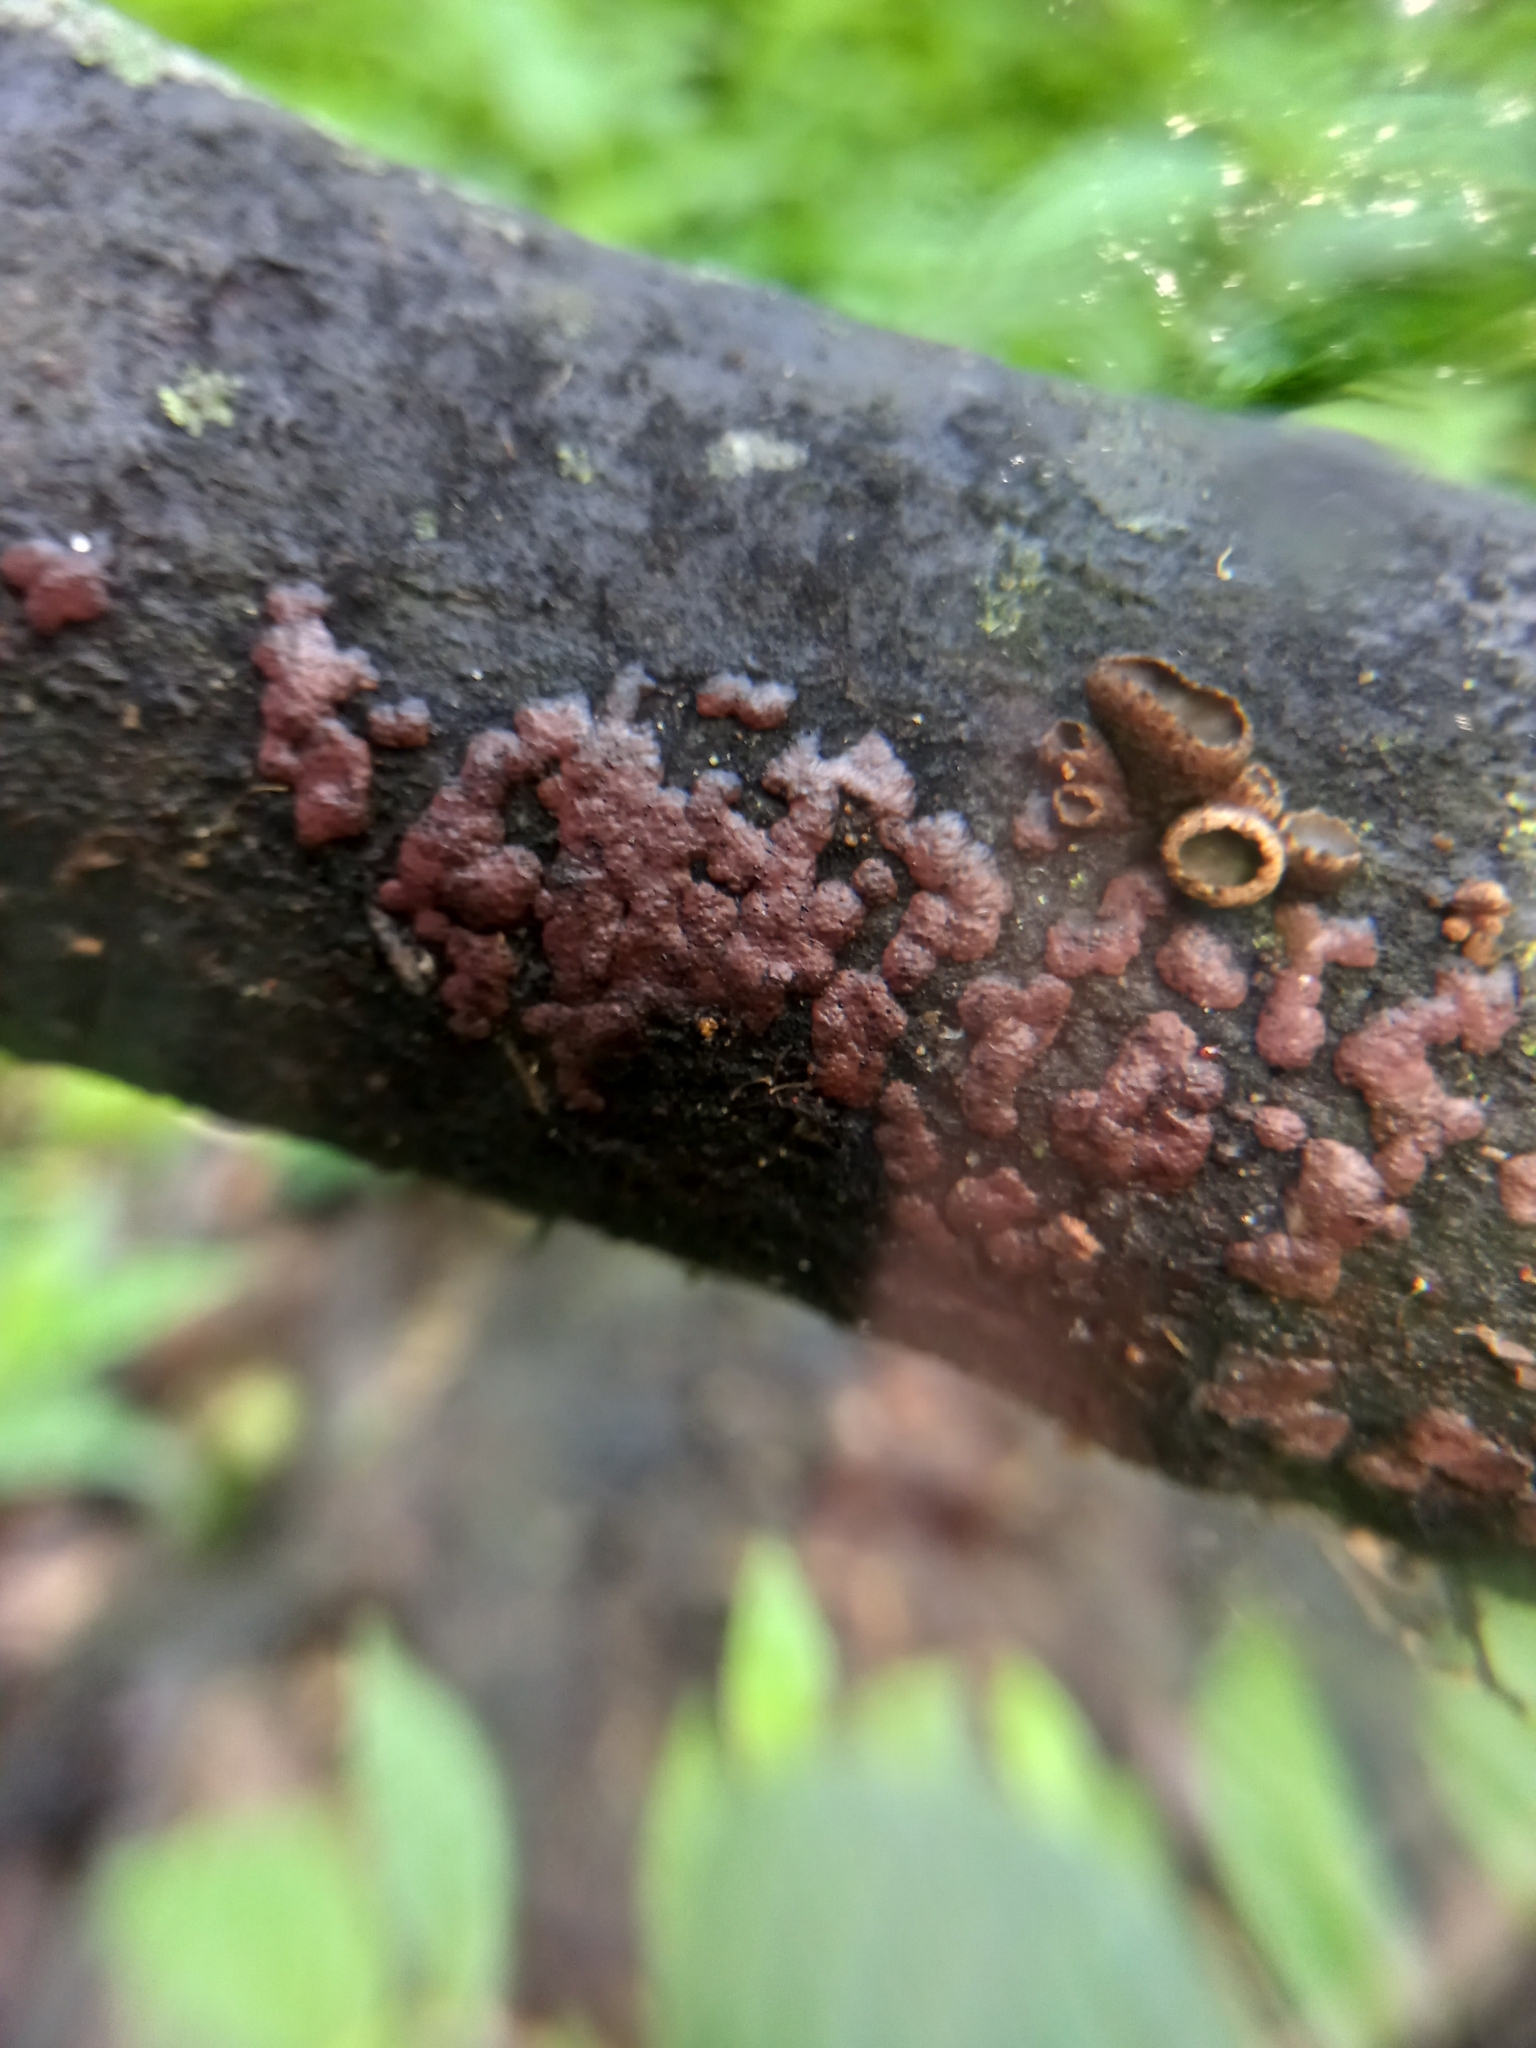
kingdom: Fungi
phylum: Ascomycota
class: Sordariomycetes
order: Xylariales
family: Hypoxylaceae
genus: Hypoxylon
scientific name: Hypoxylon rubiginosum
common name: Rusty woodwart
